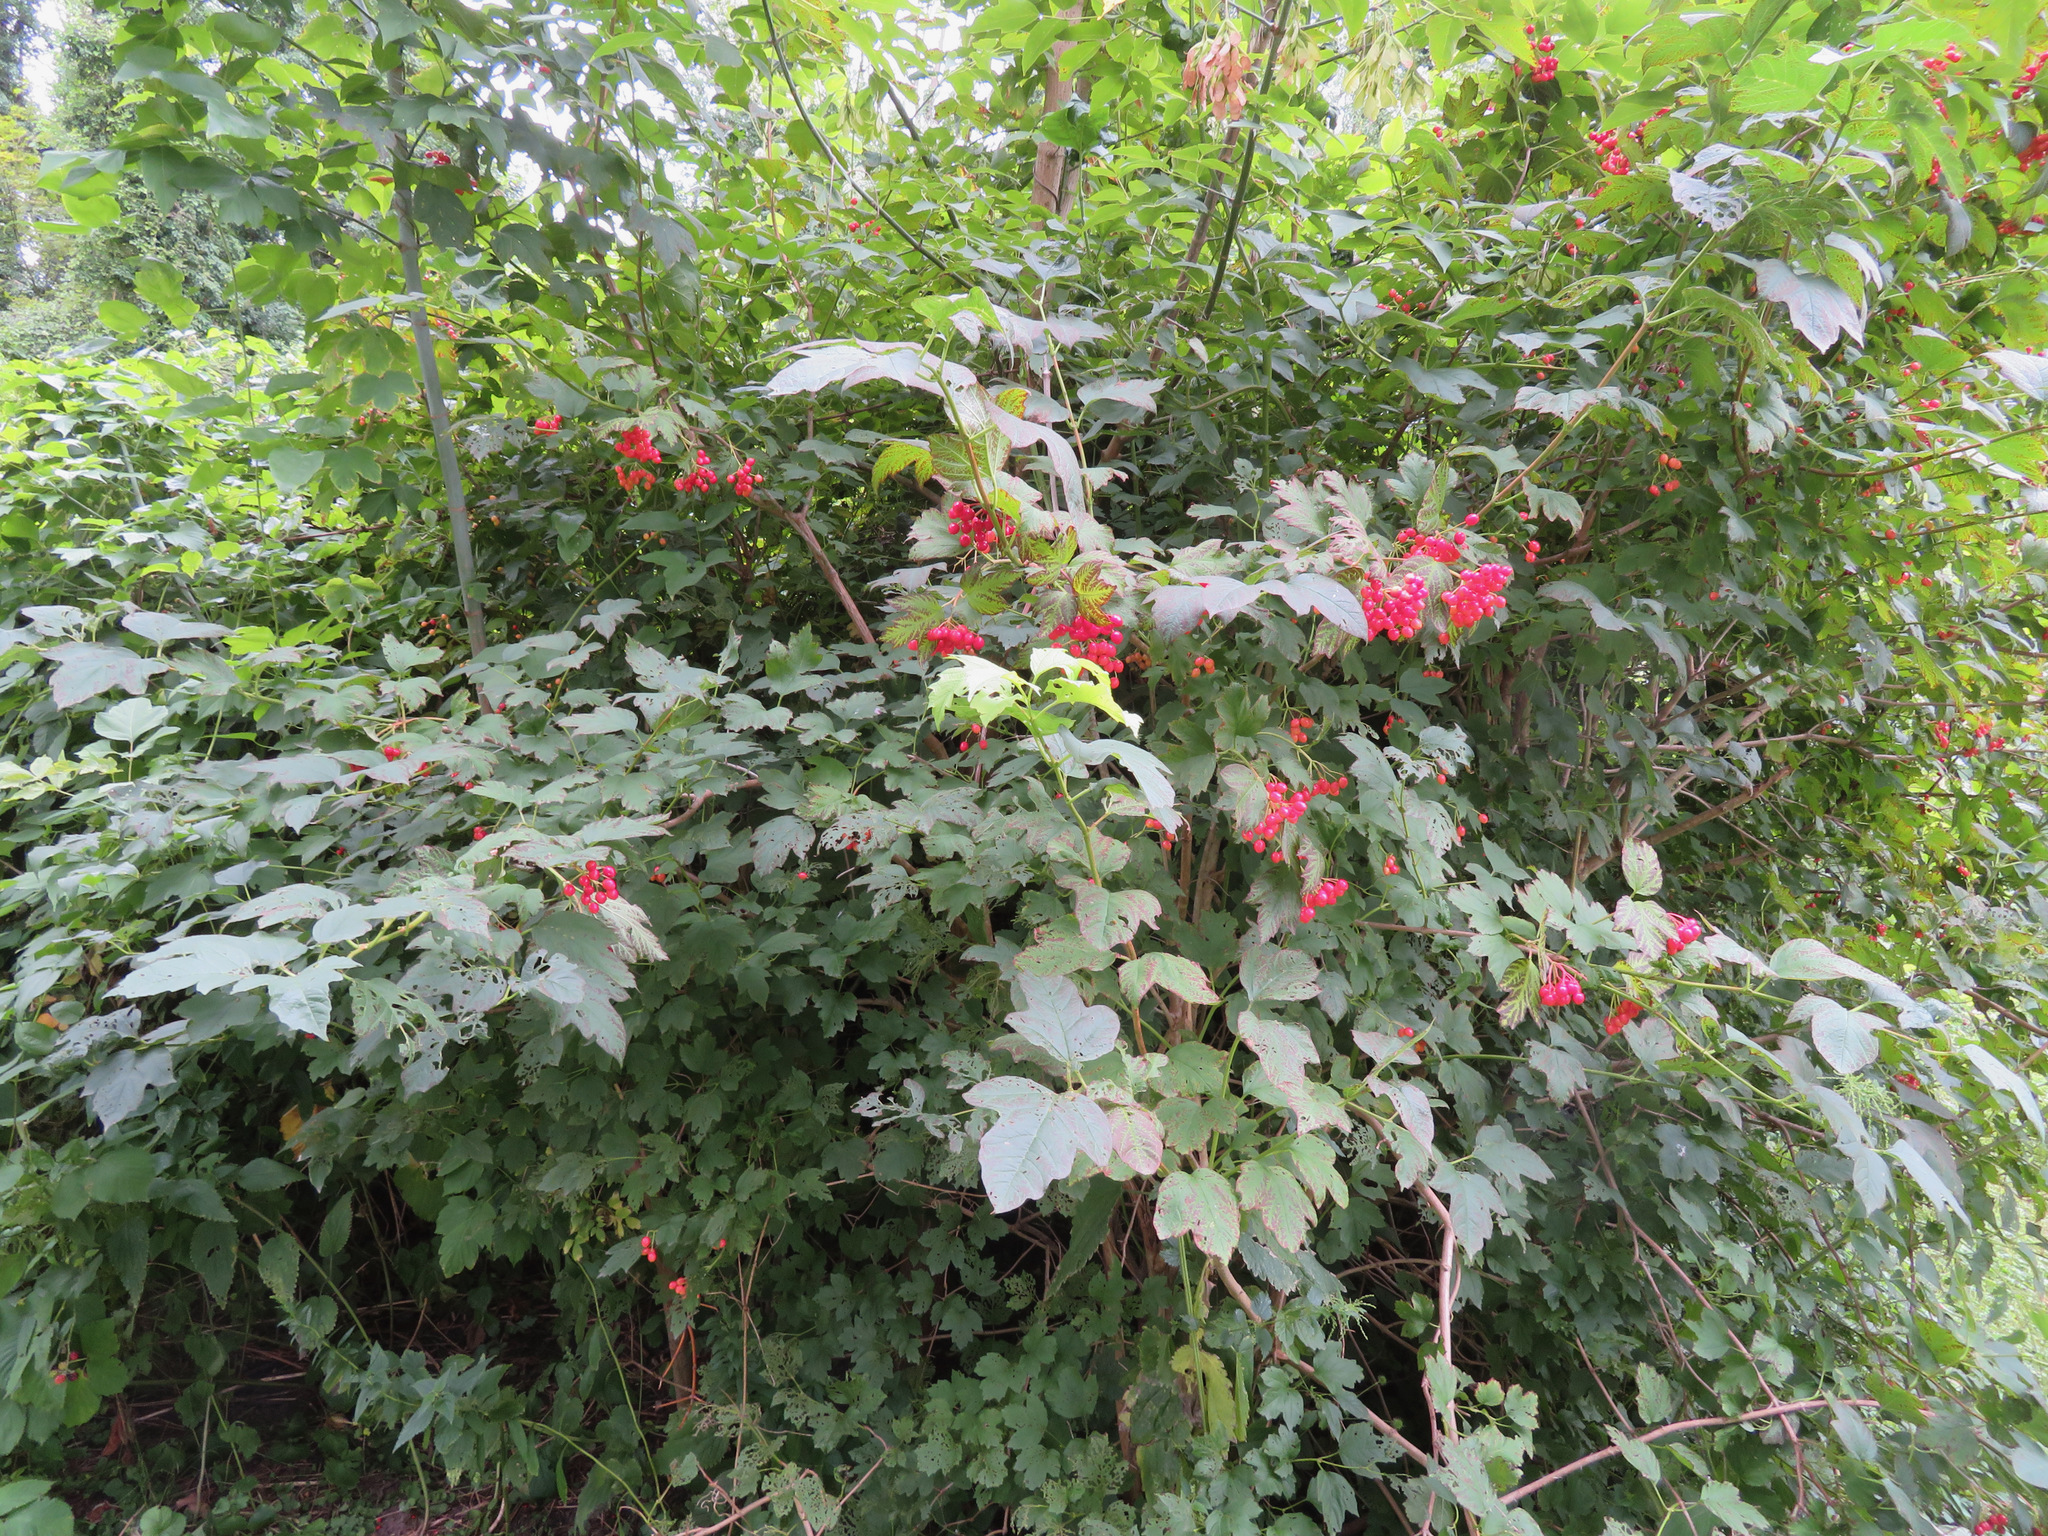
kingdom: Plantae
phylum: Tracheophyta
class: Magnoliopsida
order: Dipsacales
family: Viburnaceae
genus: Viburnum
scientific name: Viburnum opulus
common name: Guelder-rose
